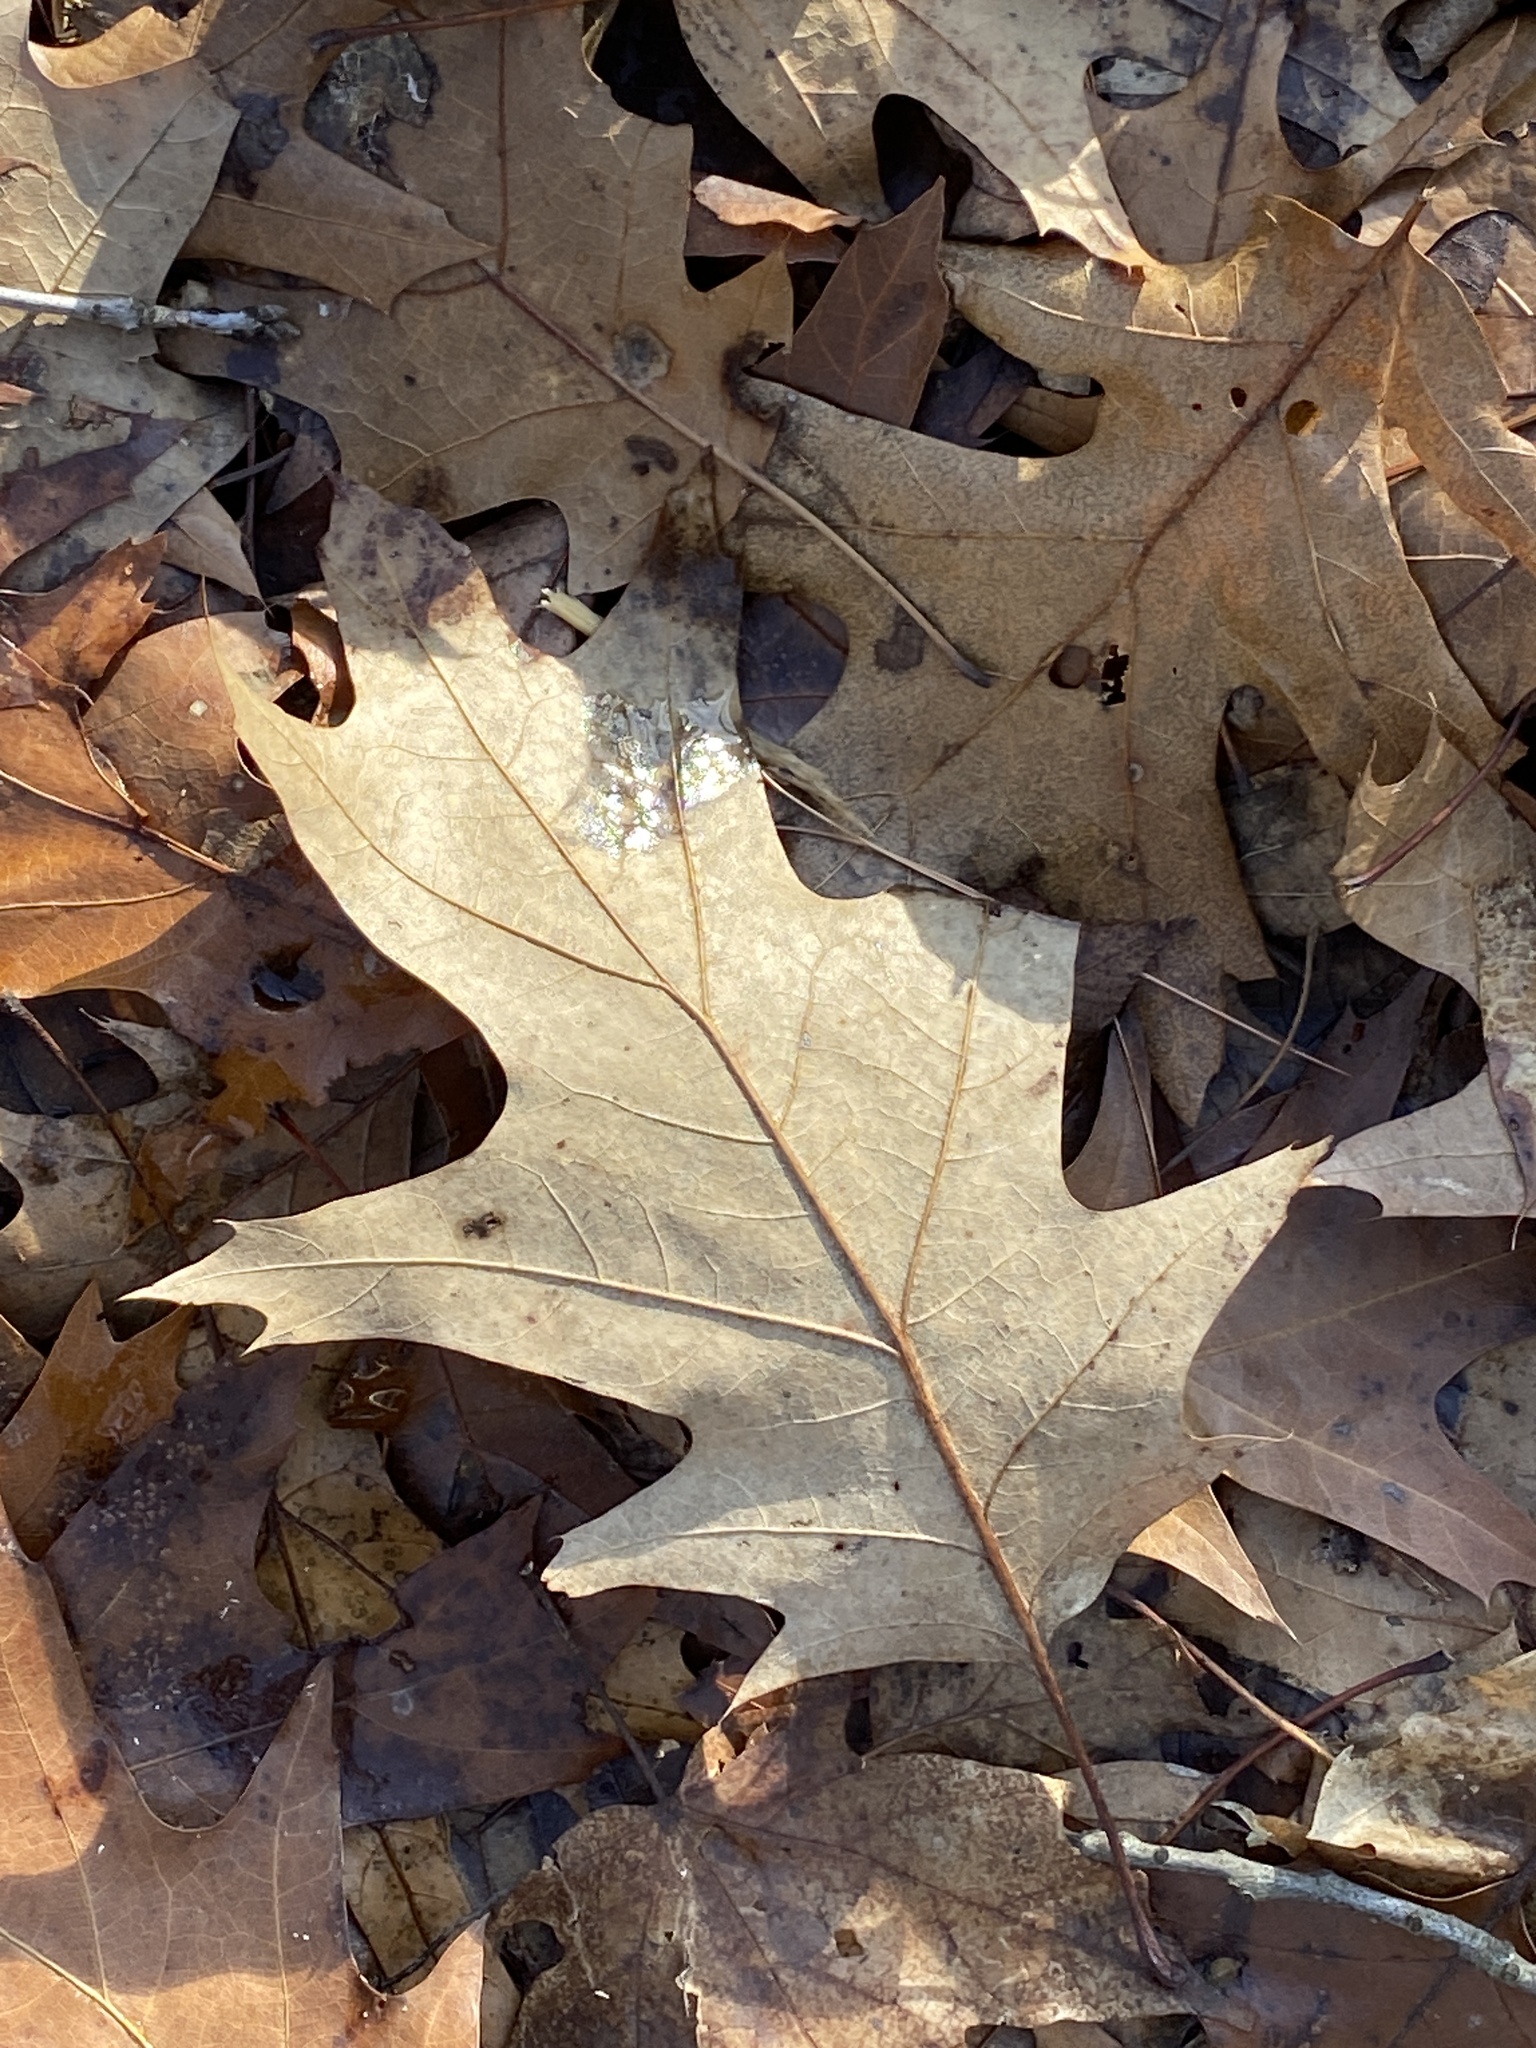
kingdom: Plantae
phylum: Tracheophyta
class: Magnoliopsida
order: Fagales
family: Fagaceae
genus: Quercus
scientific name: Quercus rubra
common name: Red oak
